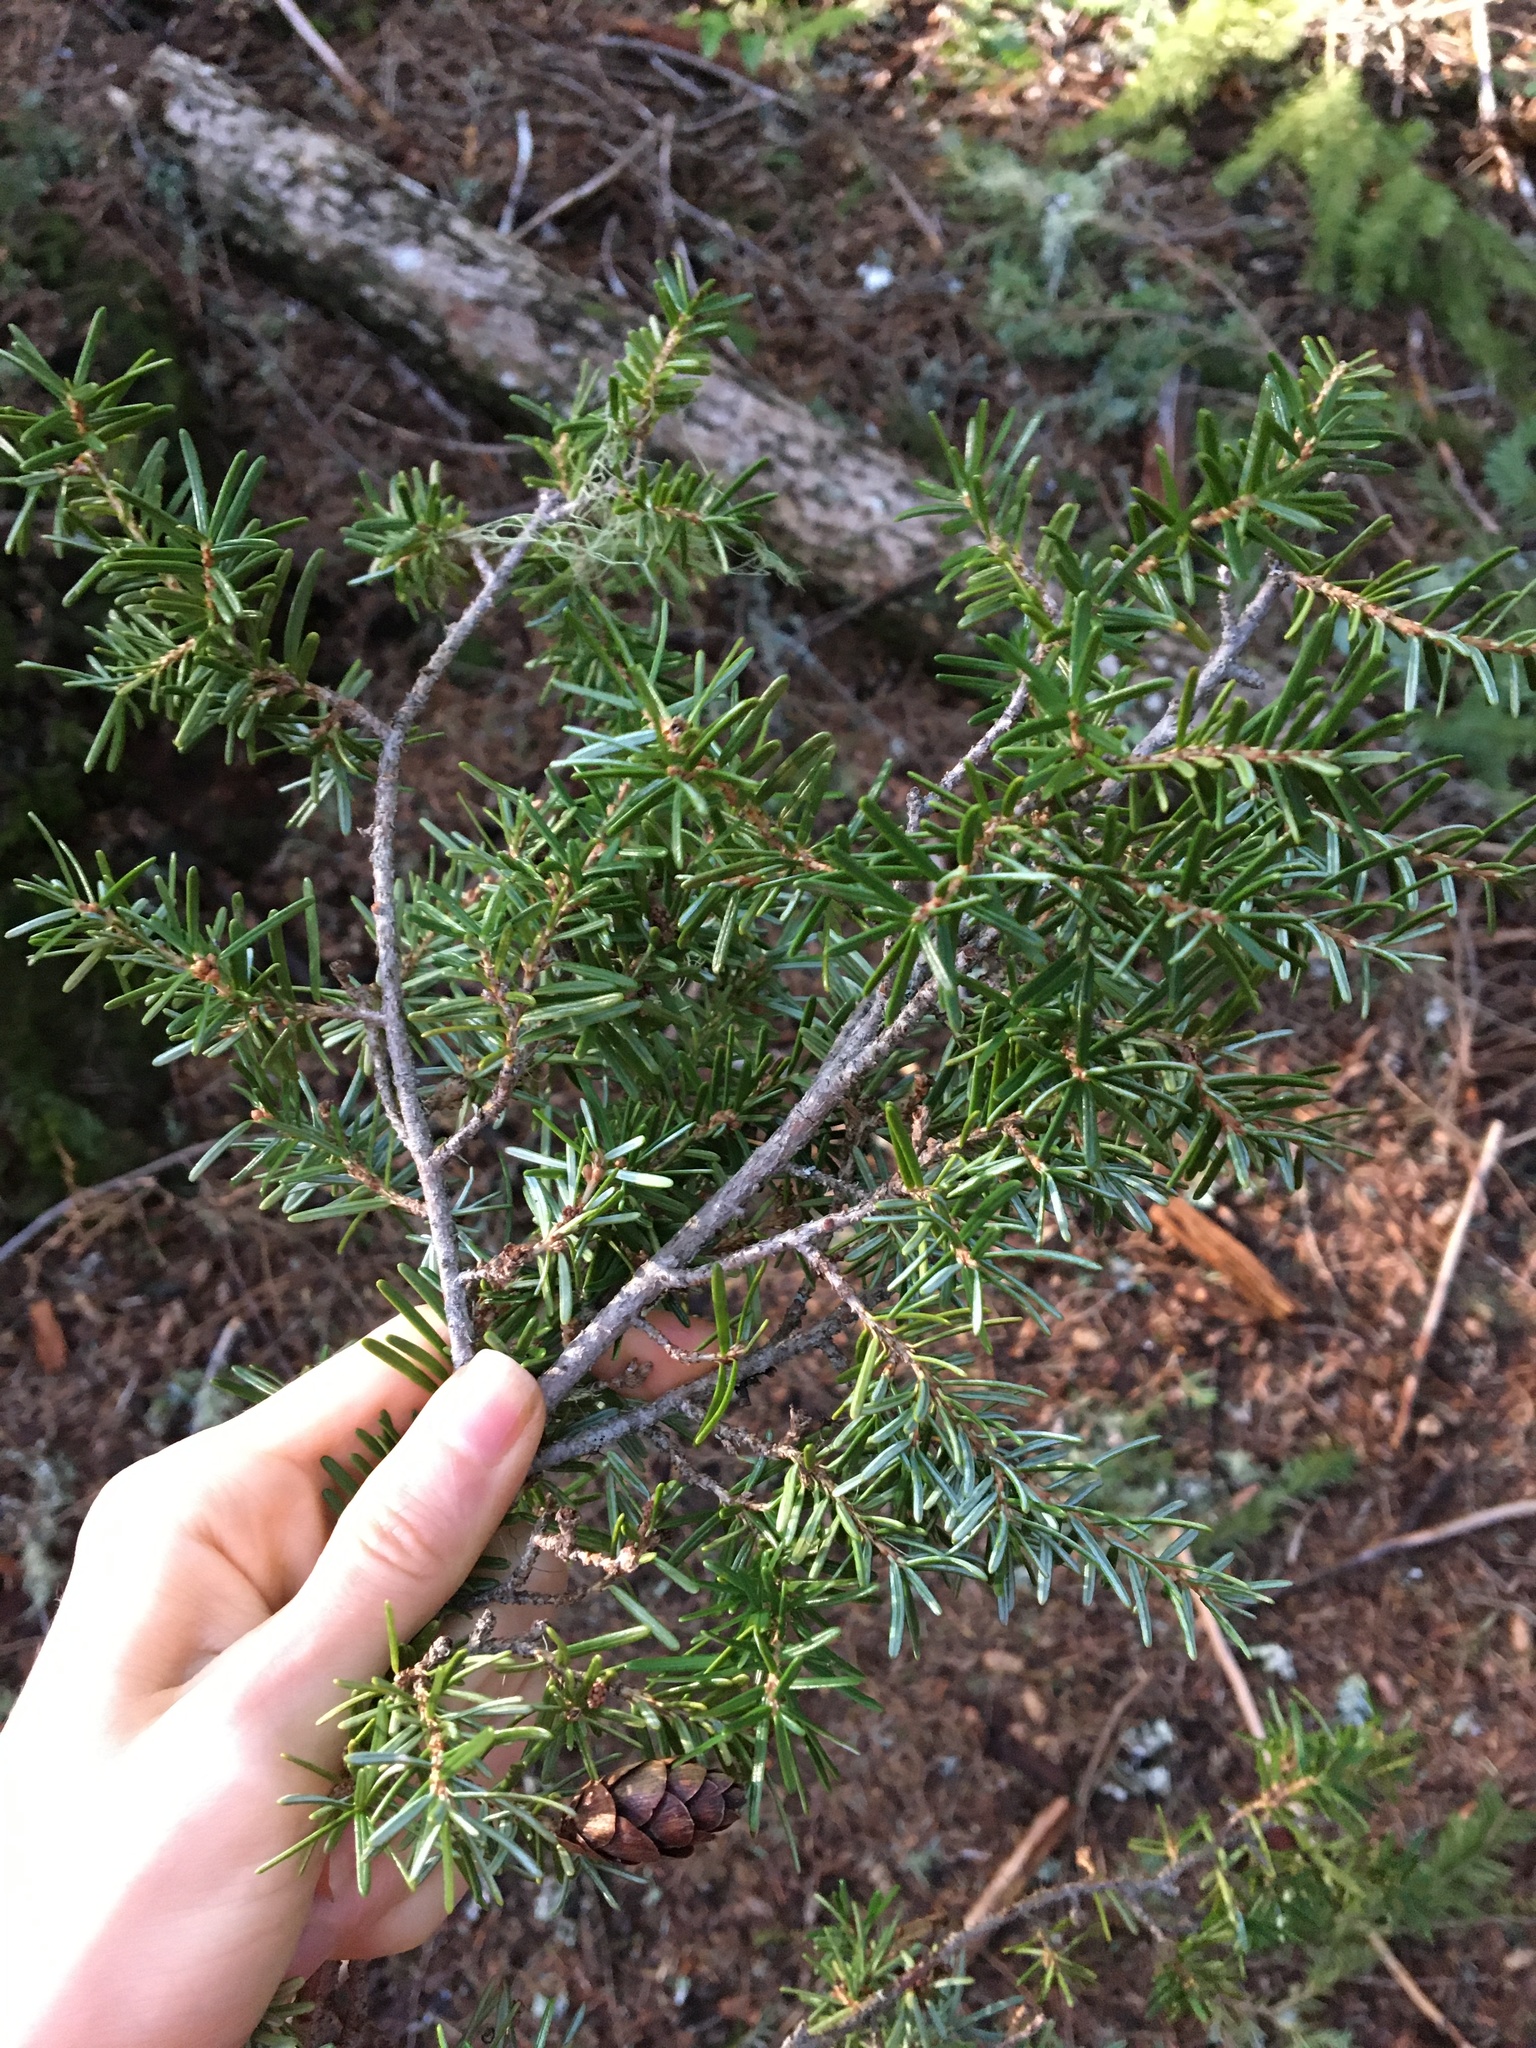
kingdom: Plantae
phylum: Tracheophyta
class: Pinopsida
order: Pinales
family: Pinaceae
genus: Tsuga
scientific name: Tsuga heterophylla
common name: Western hemlock
